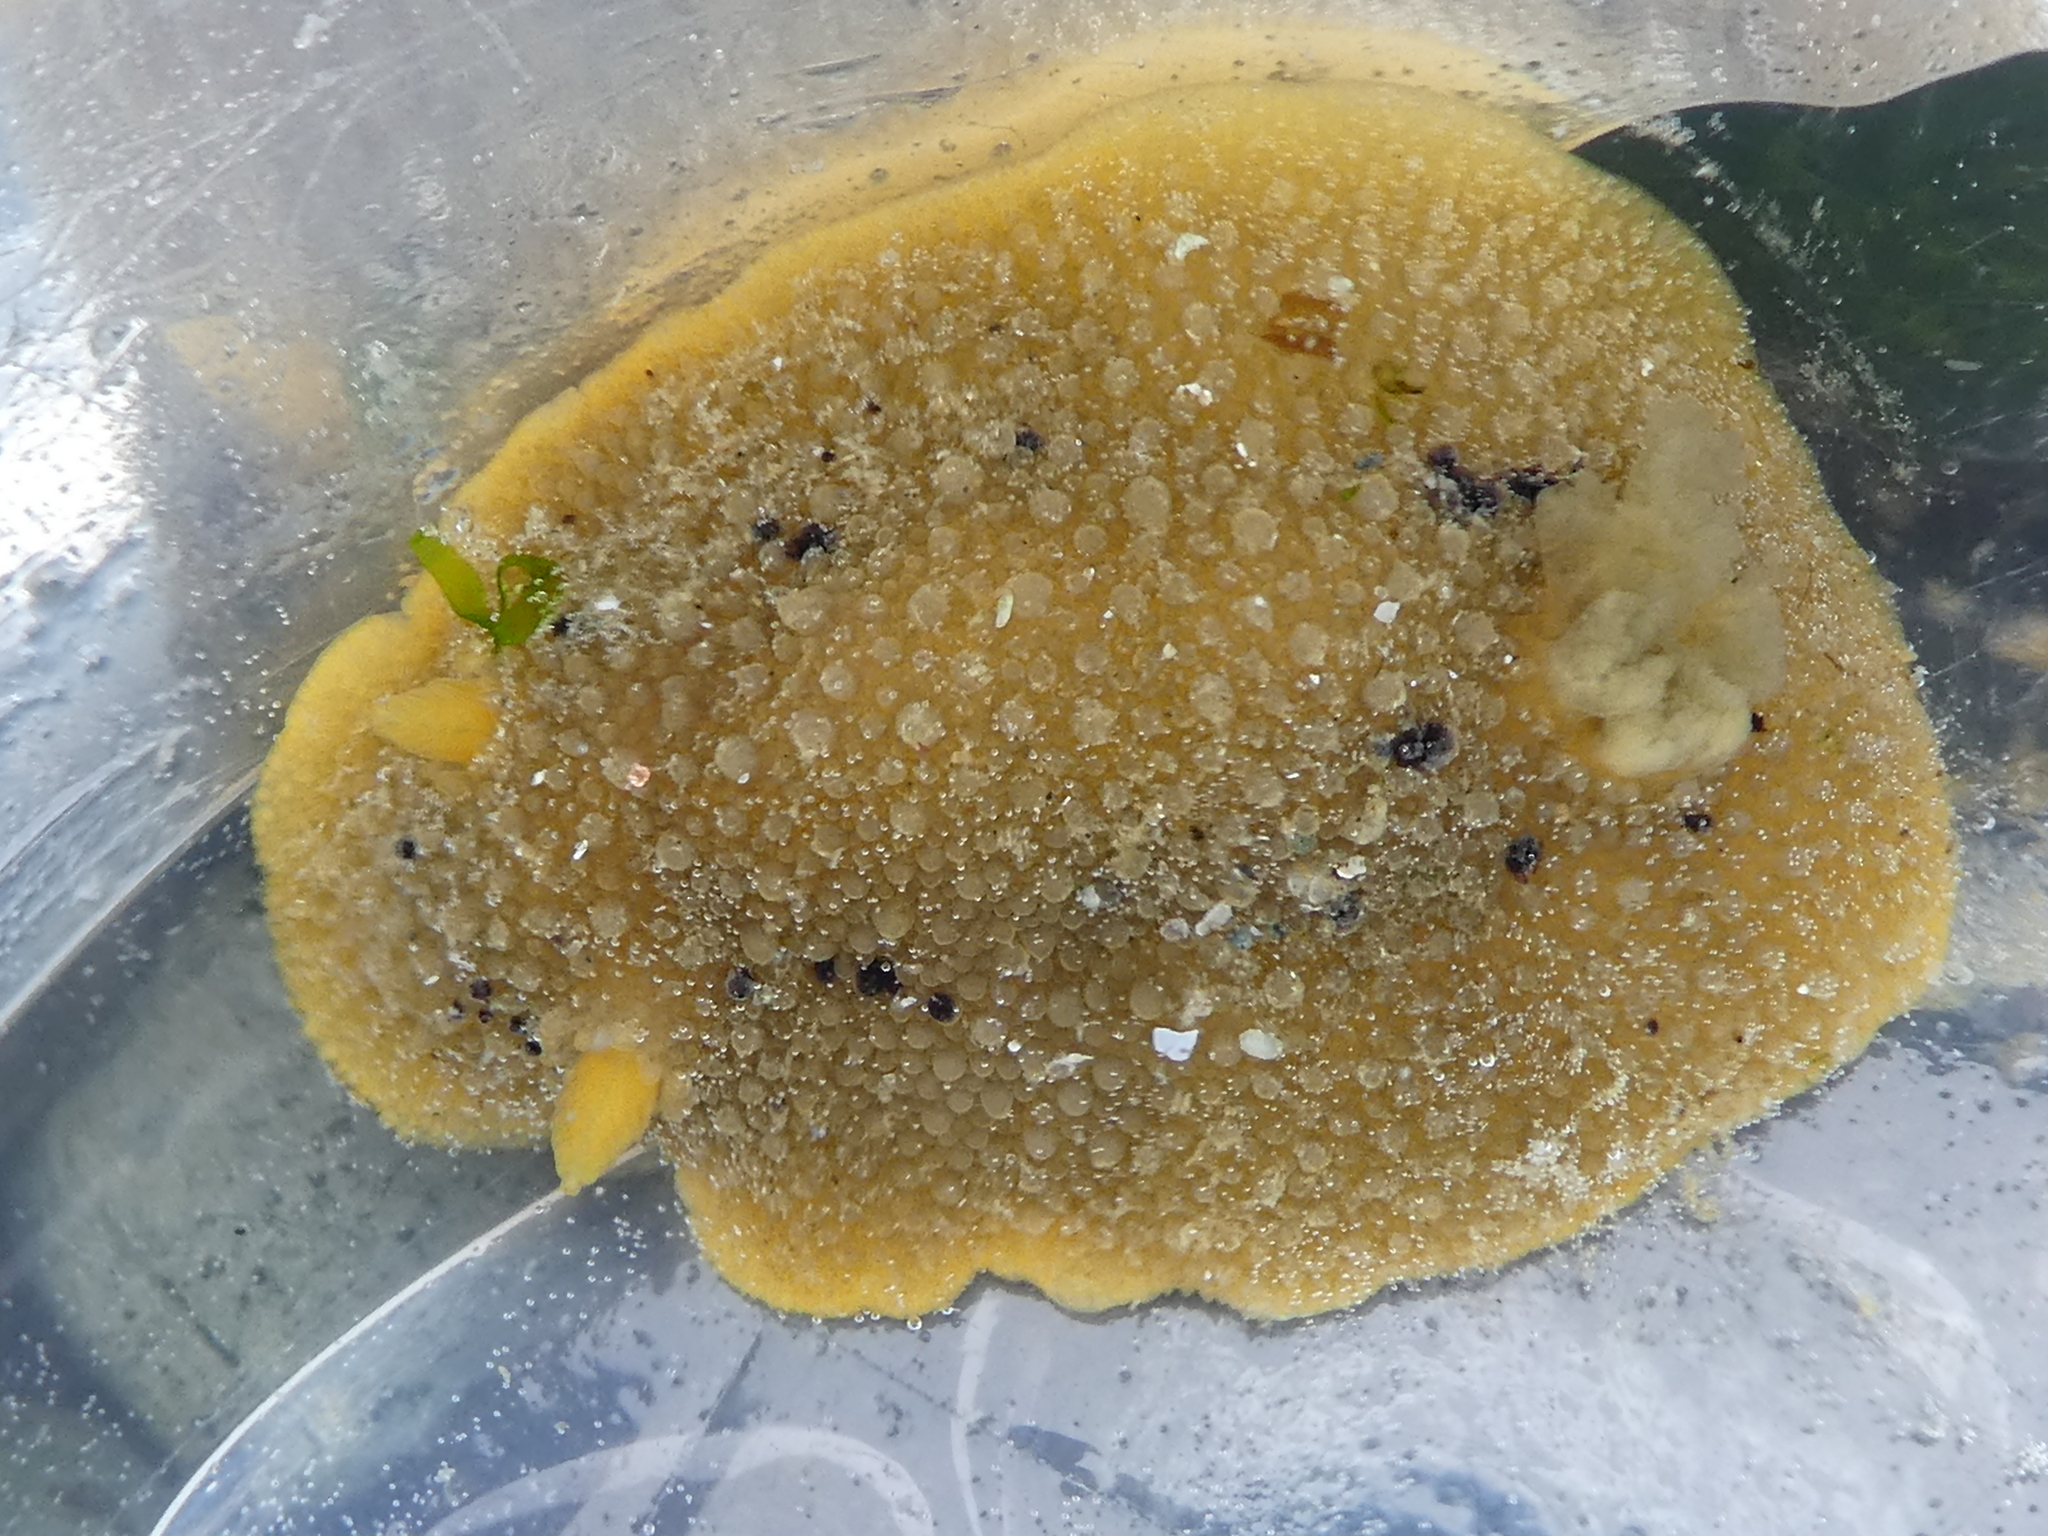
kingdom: Animalia
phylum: Mollusca
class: Gastropoda
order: Nudibranchia
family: Dorididae
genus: Doris
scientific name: Doris montereyensis
